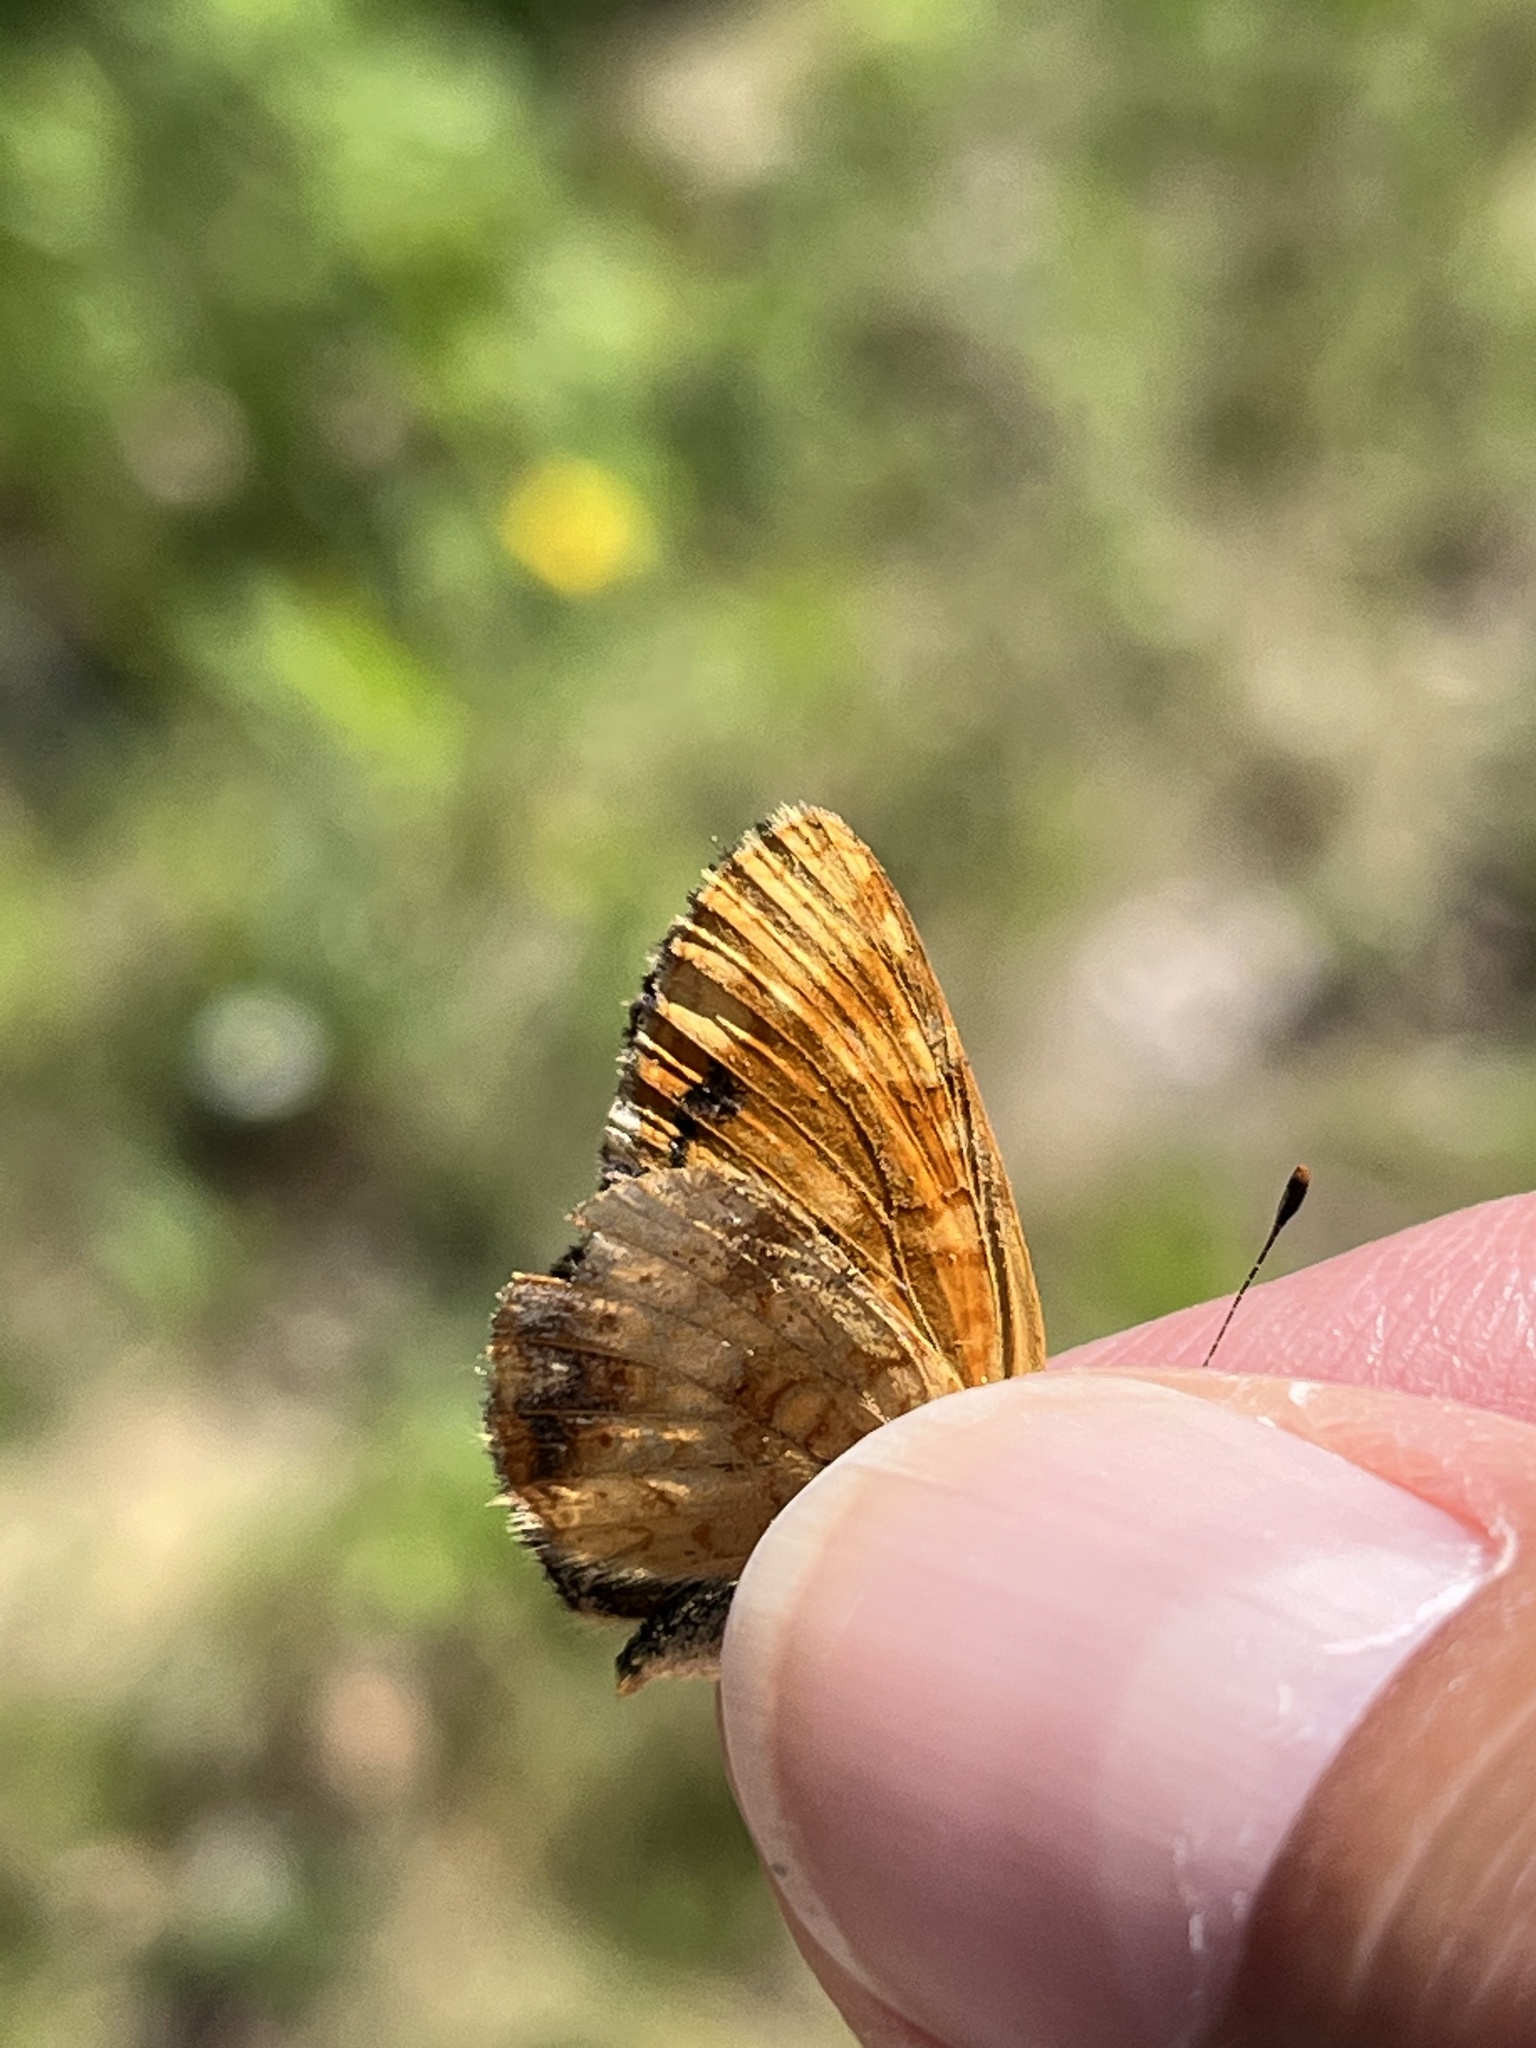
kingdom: Animalia
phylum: Arthropoda
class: Insecta
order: Lepidoptera
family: Nymphalidae
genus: Phyciodes
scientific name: Phyciodes tharos
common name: Pearl crescent
